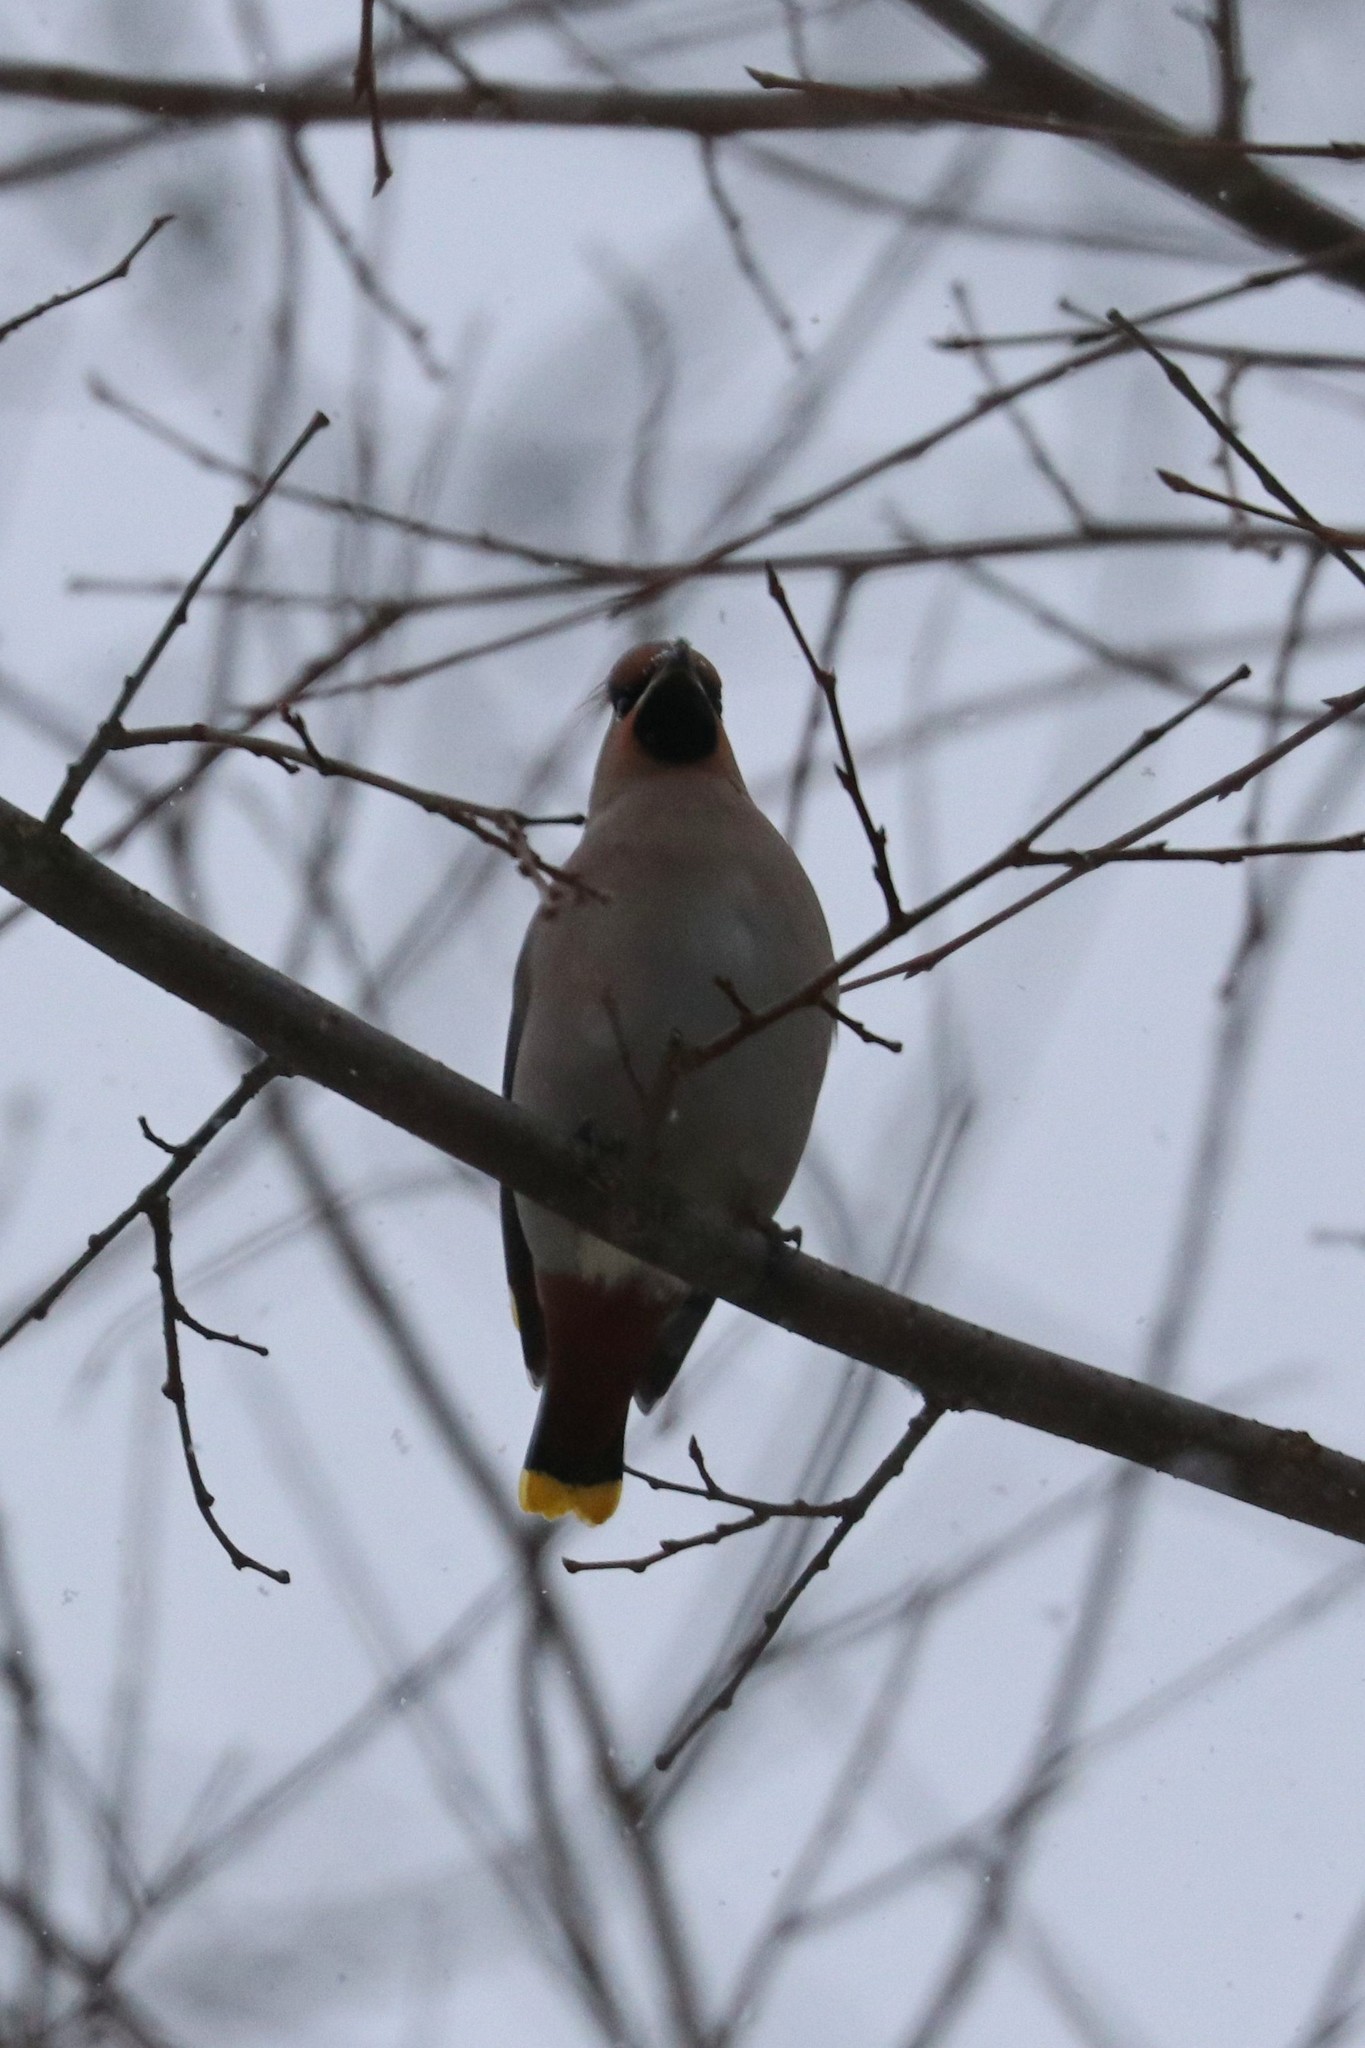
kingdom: Animalia
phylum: Chordata
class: Aves
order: Passeriformes
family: Bombycillidae
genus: Bombycilla
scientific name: Bombycilla garrulus
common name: Bohemian waxwing
